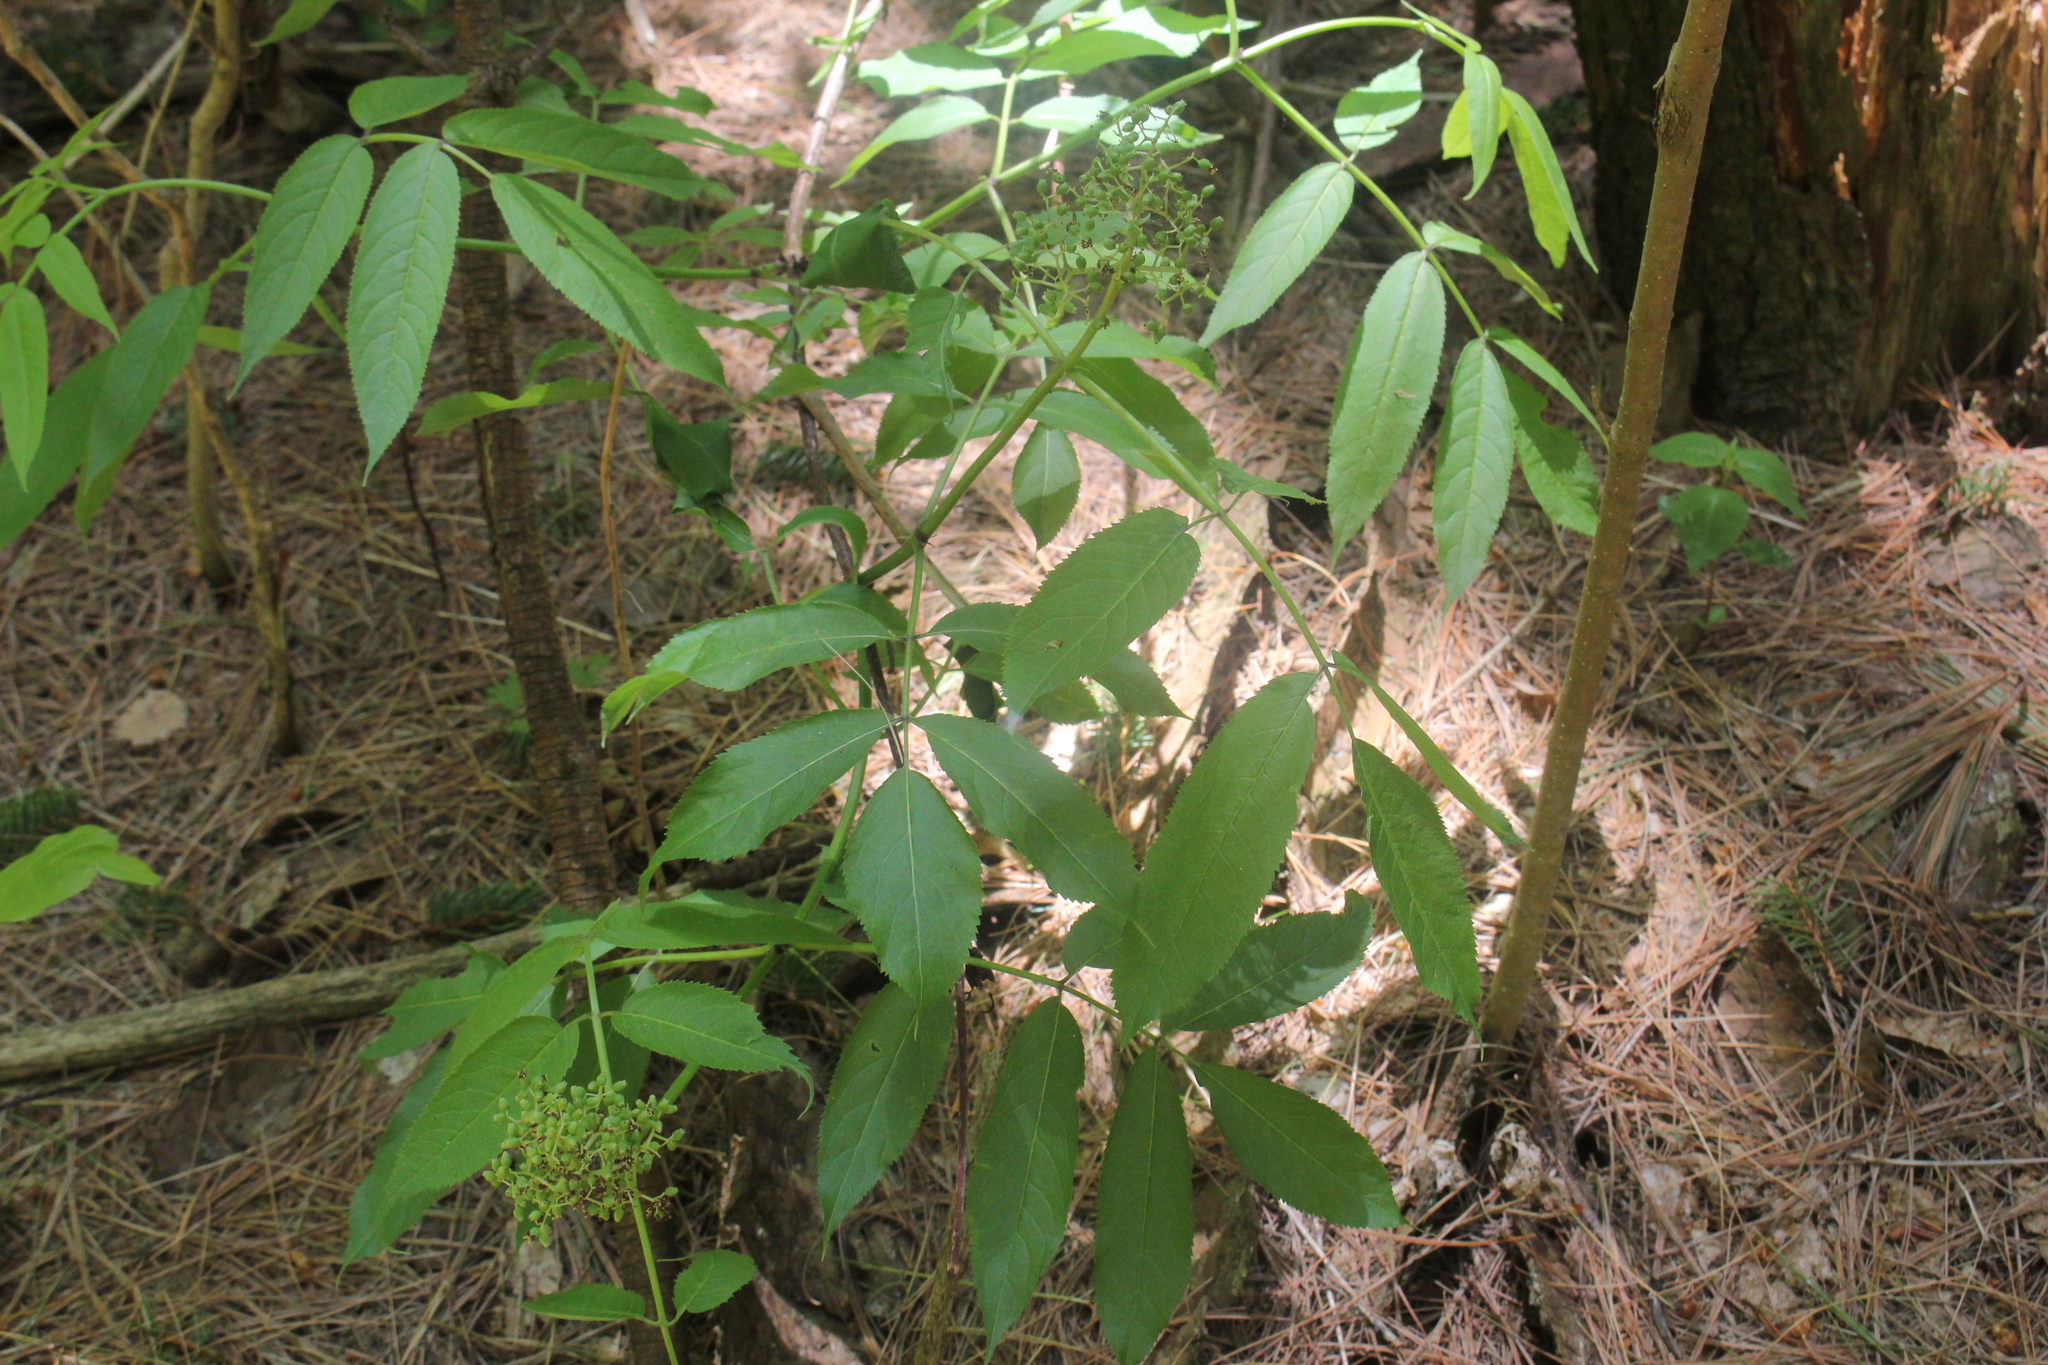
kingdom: Plantae
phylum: Tracheophyta
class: Magnoliopsida
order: Dipsacales
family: Viburnaceae
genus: Sambucus
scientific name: Sambucus racemosa
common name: Red-berried elder
